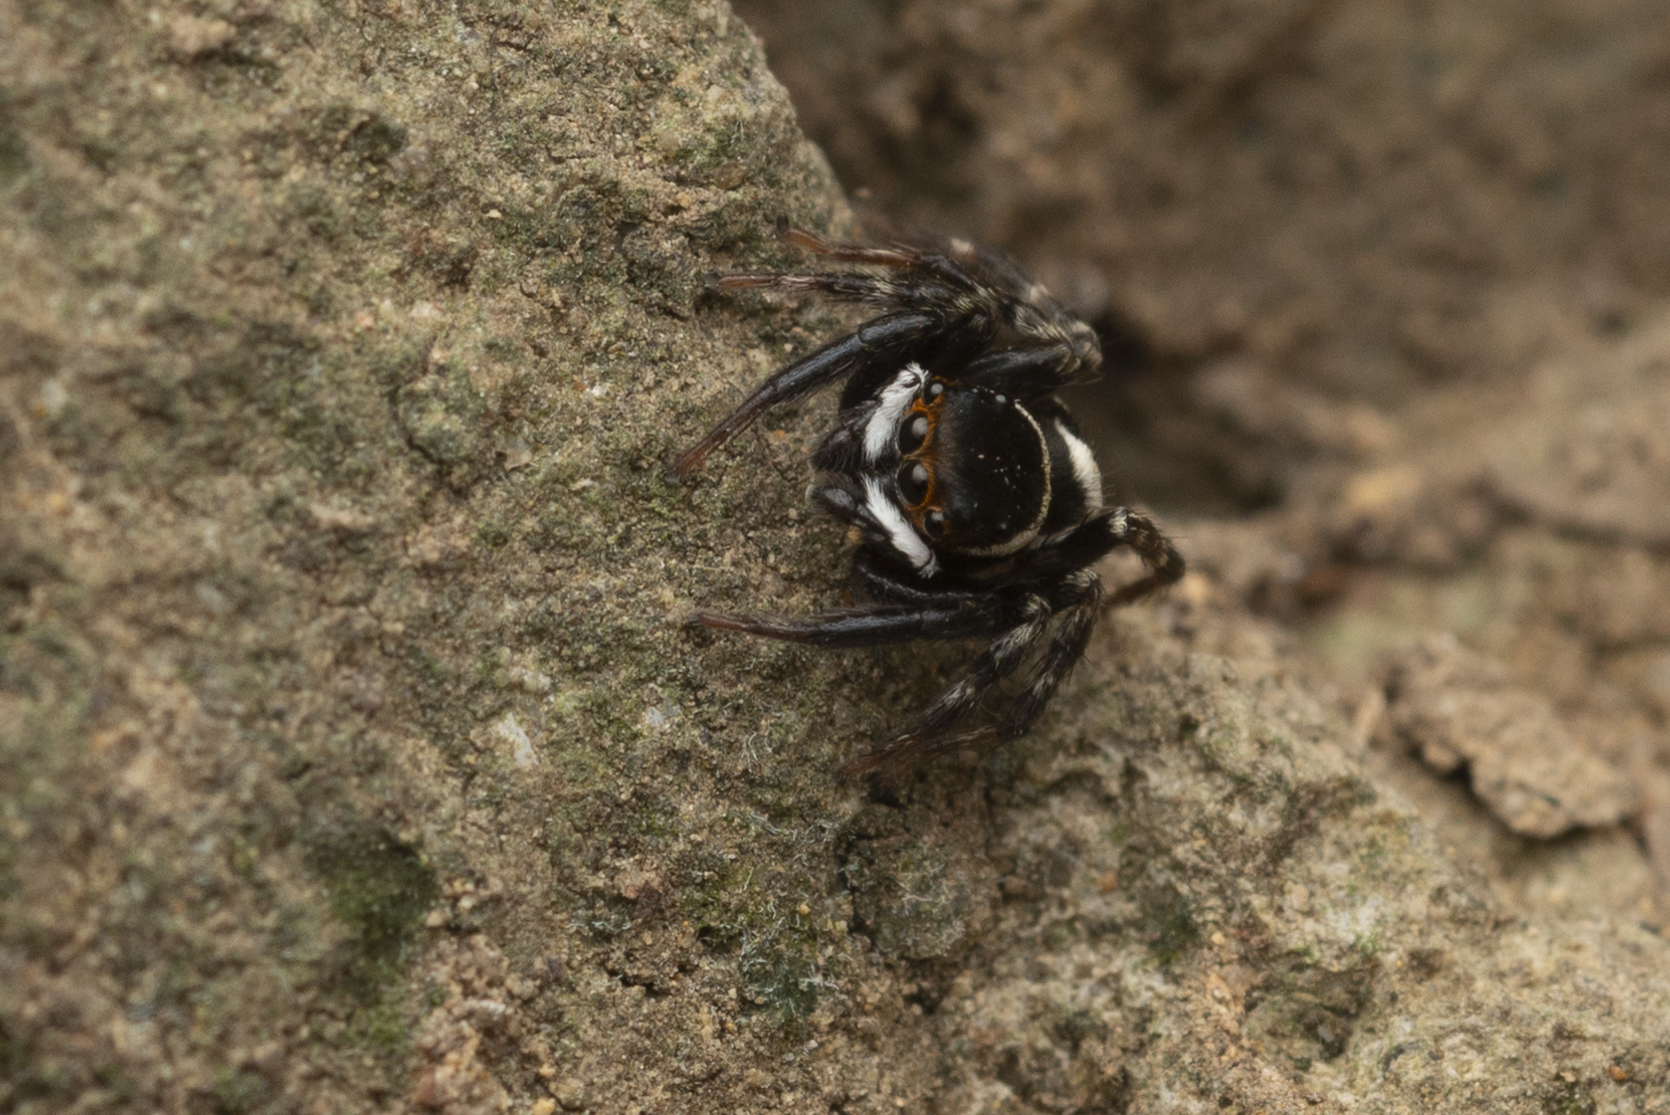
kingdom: Animalia
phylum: Arthropoda
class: Arachnida
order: Araneae
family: Salticidae
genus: Hasarius
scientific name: Hasarius adansoni
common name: Jumping spider
